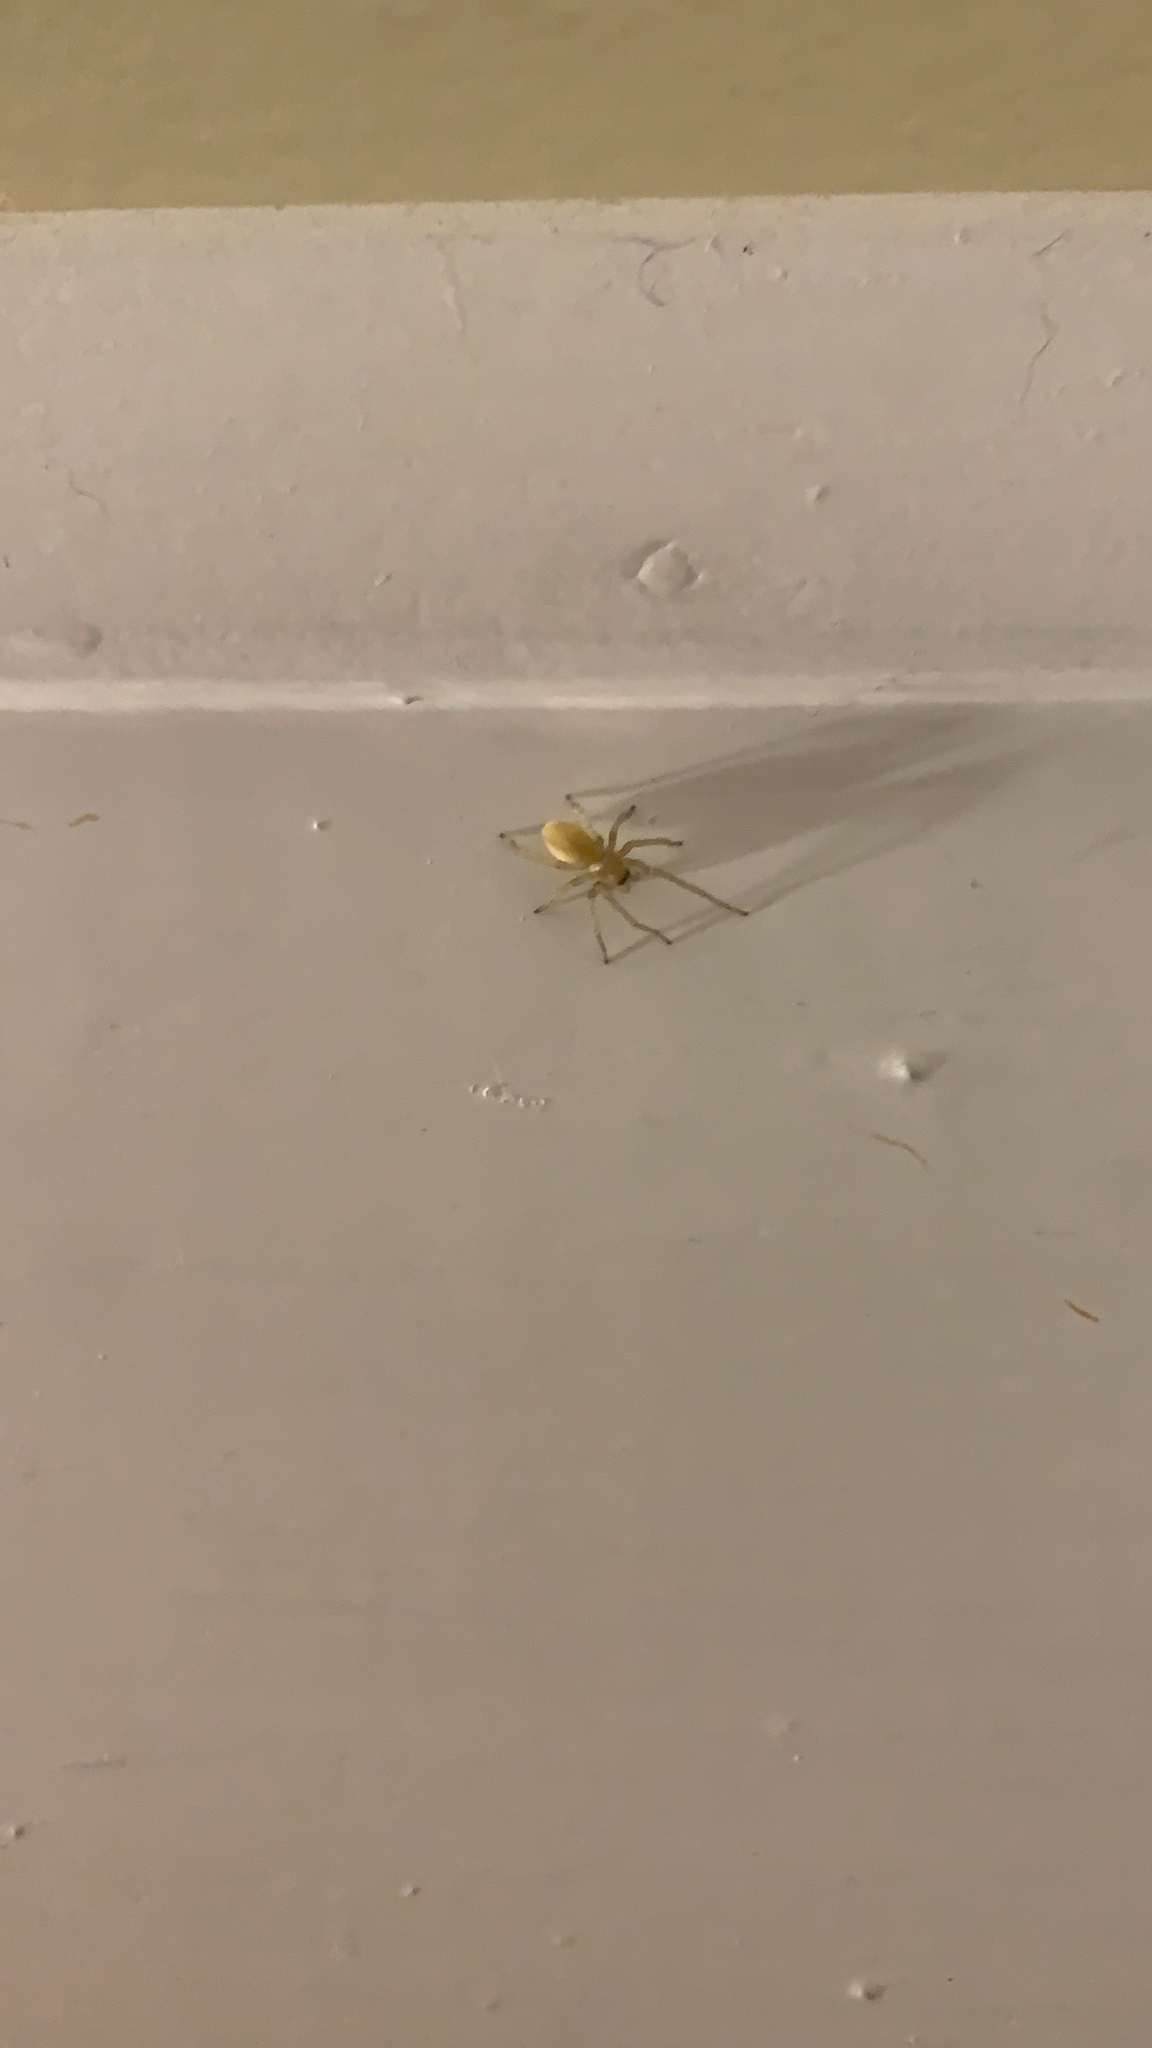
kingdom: Animalia
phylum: Arthropoda
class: Arachnida
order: Araneae
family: Cheiracanthiidae
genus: Cheiracanthium
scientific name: Cheiracanthium mildei
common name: Northern yellow sac spider
